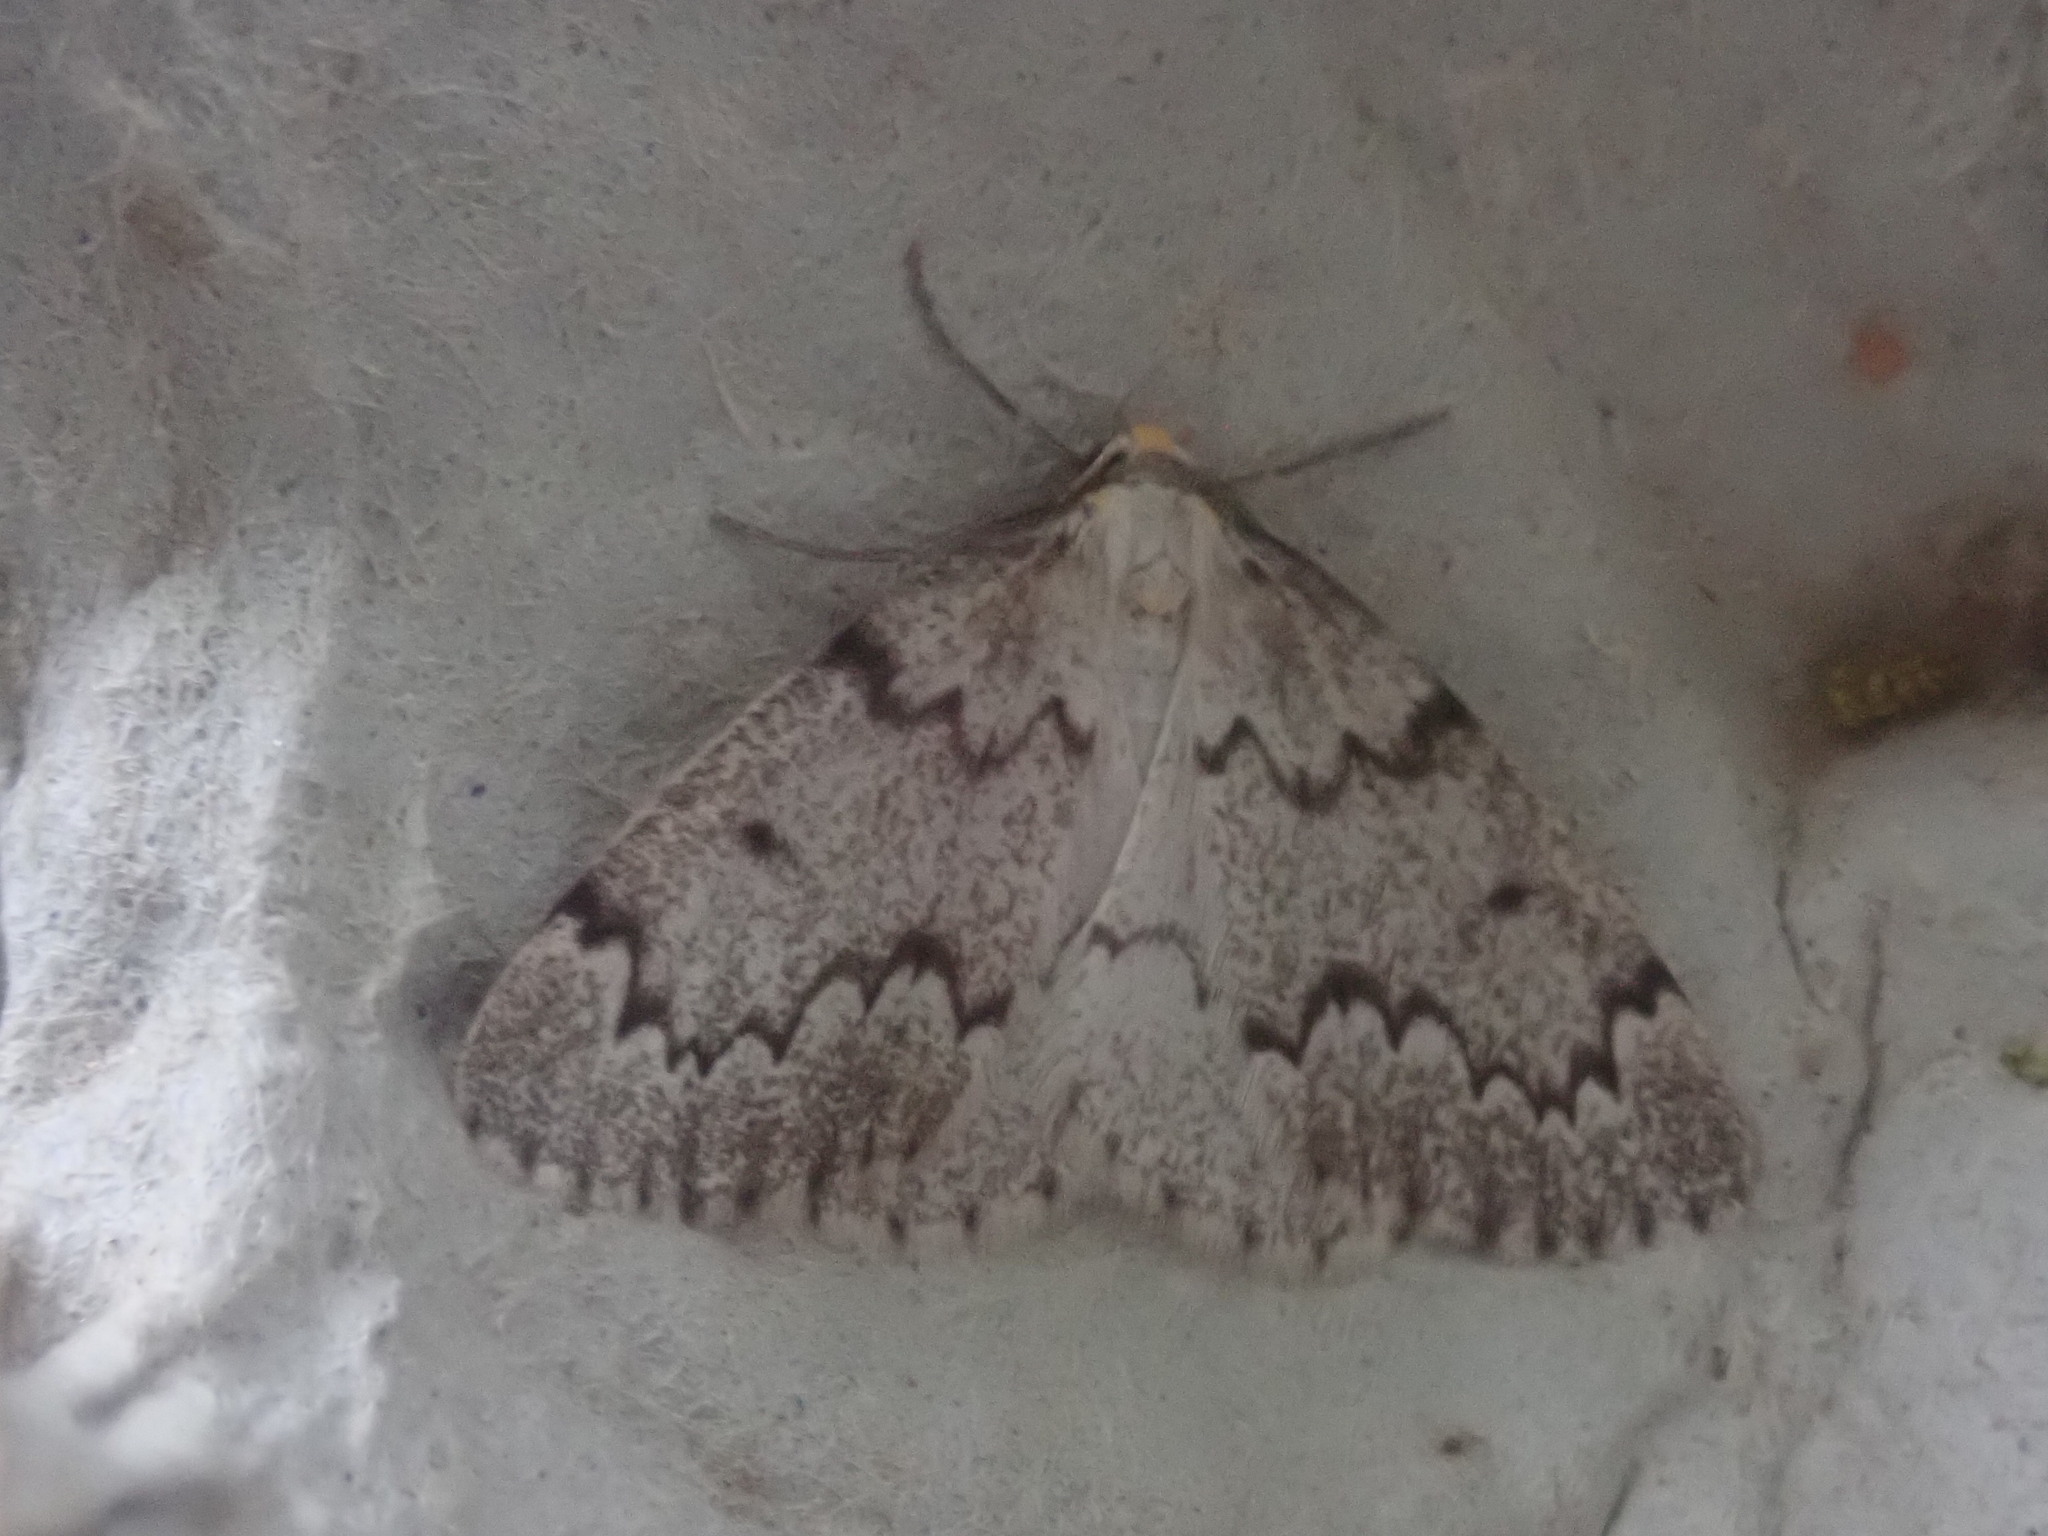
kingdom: Animalia
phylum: Arthropoda
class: Insecta
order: Lepidoptera
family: Geometridae
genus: Nepytia
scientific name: Nepytia canosaria
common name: False hemlock looper
